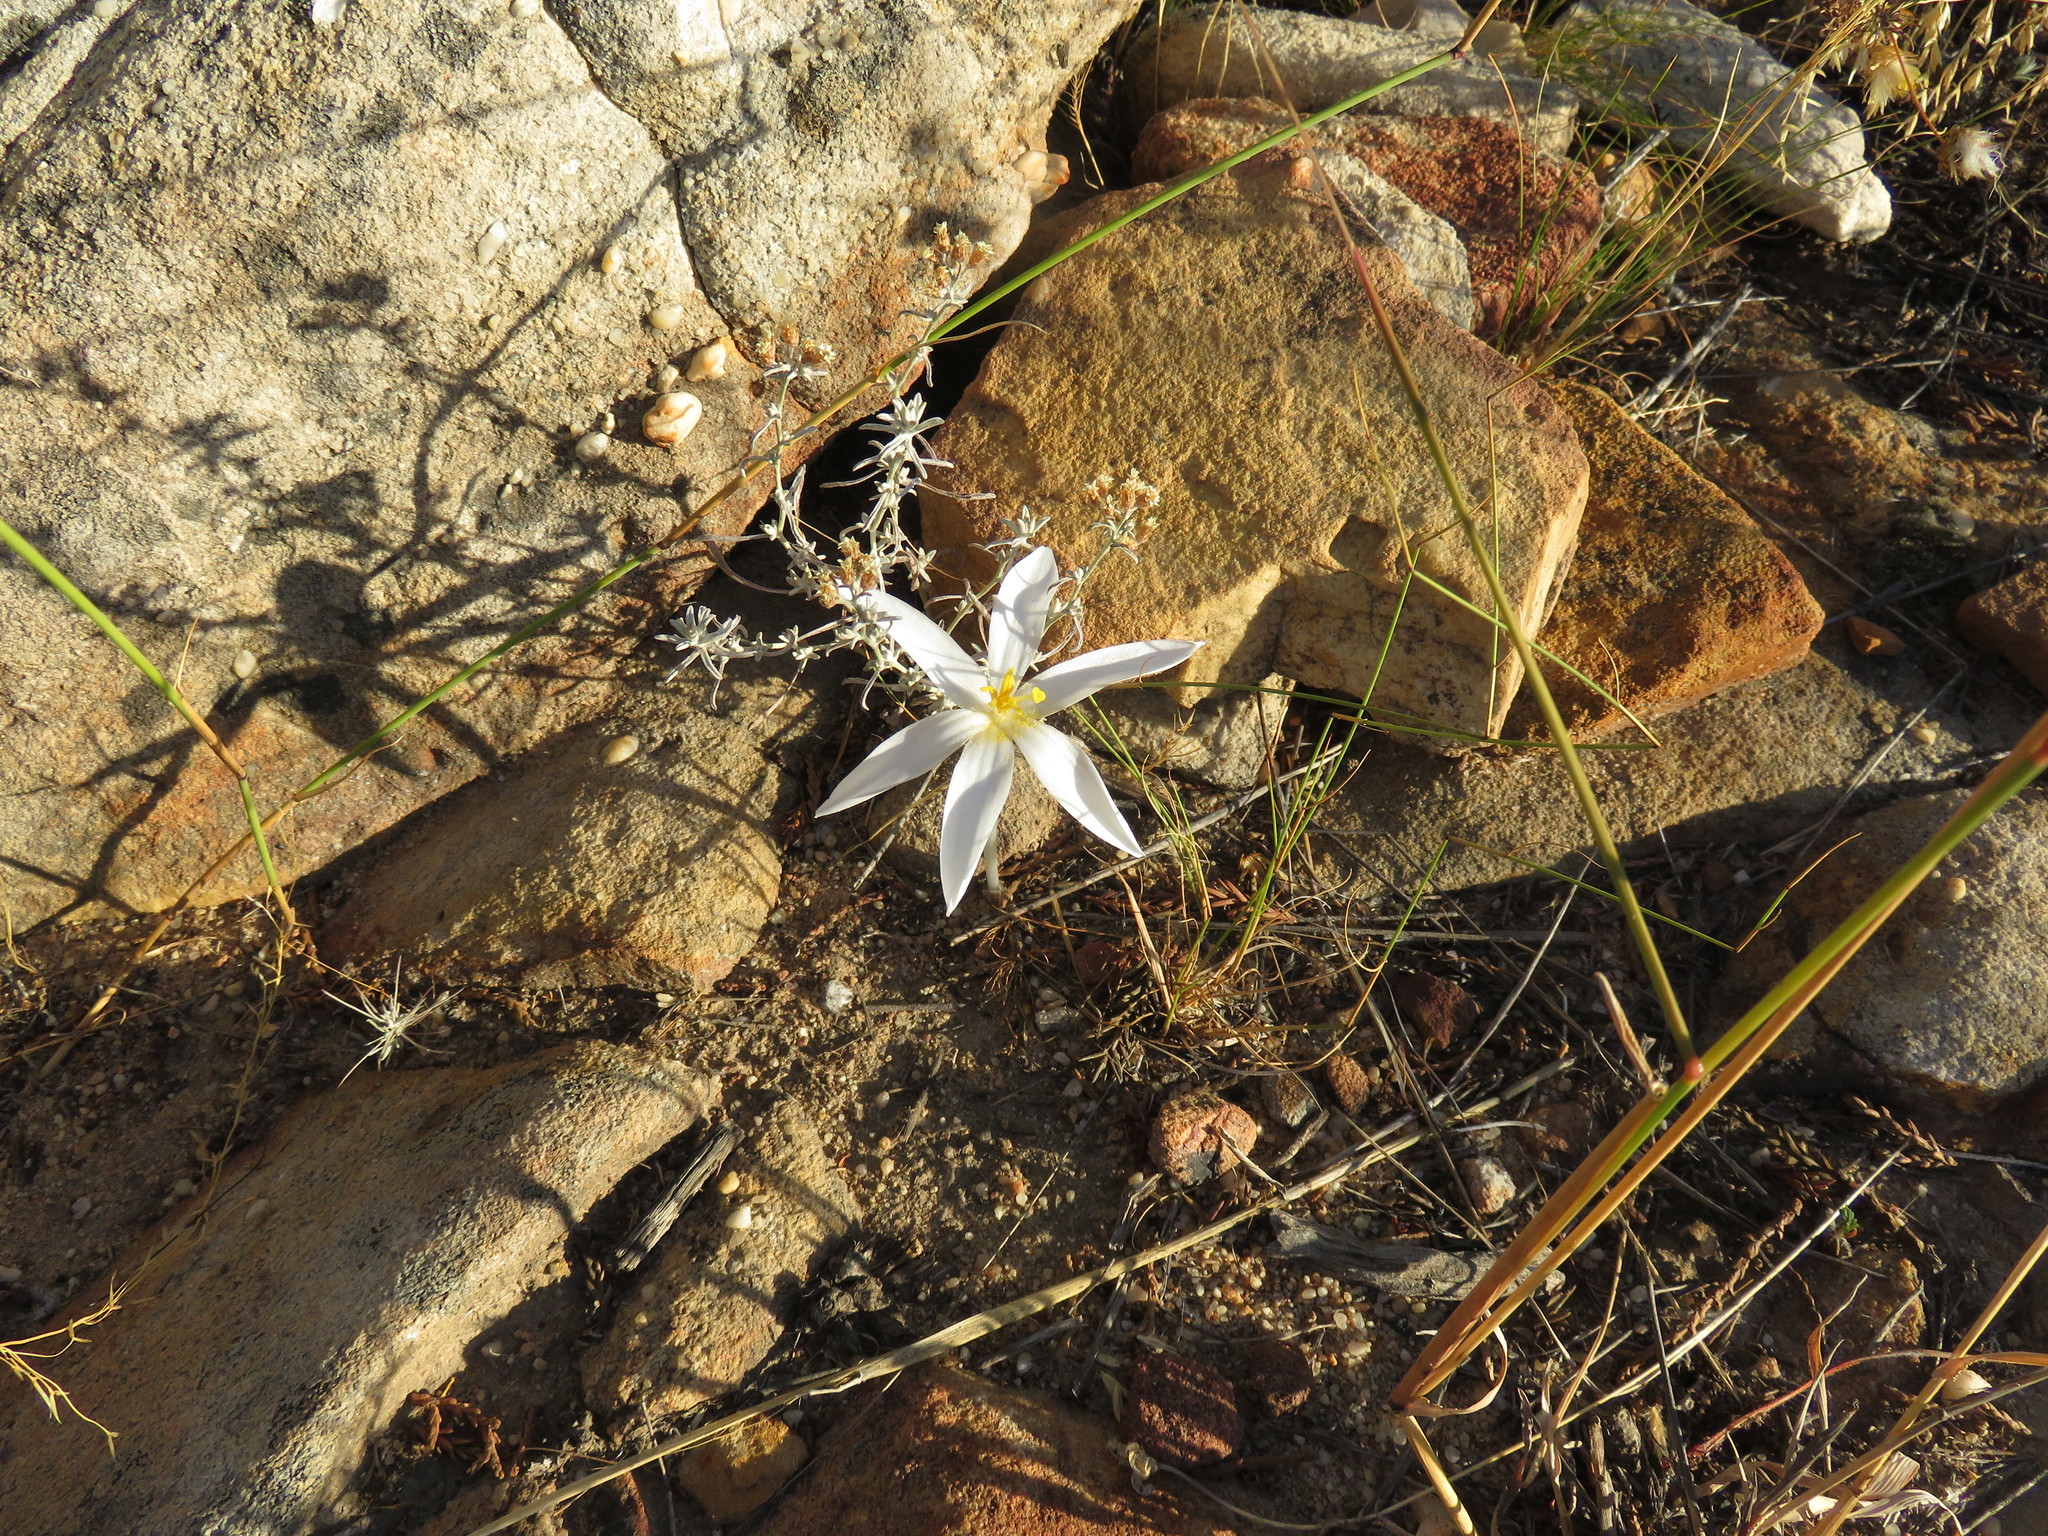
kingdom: Plantae
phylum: Tracheophyta
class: Liliopsida
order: Asparagales
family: Amaryllidaceae
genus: Gethyllis
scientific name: Gethyllis verticillata
